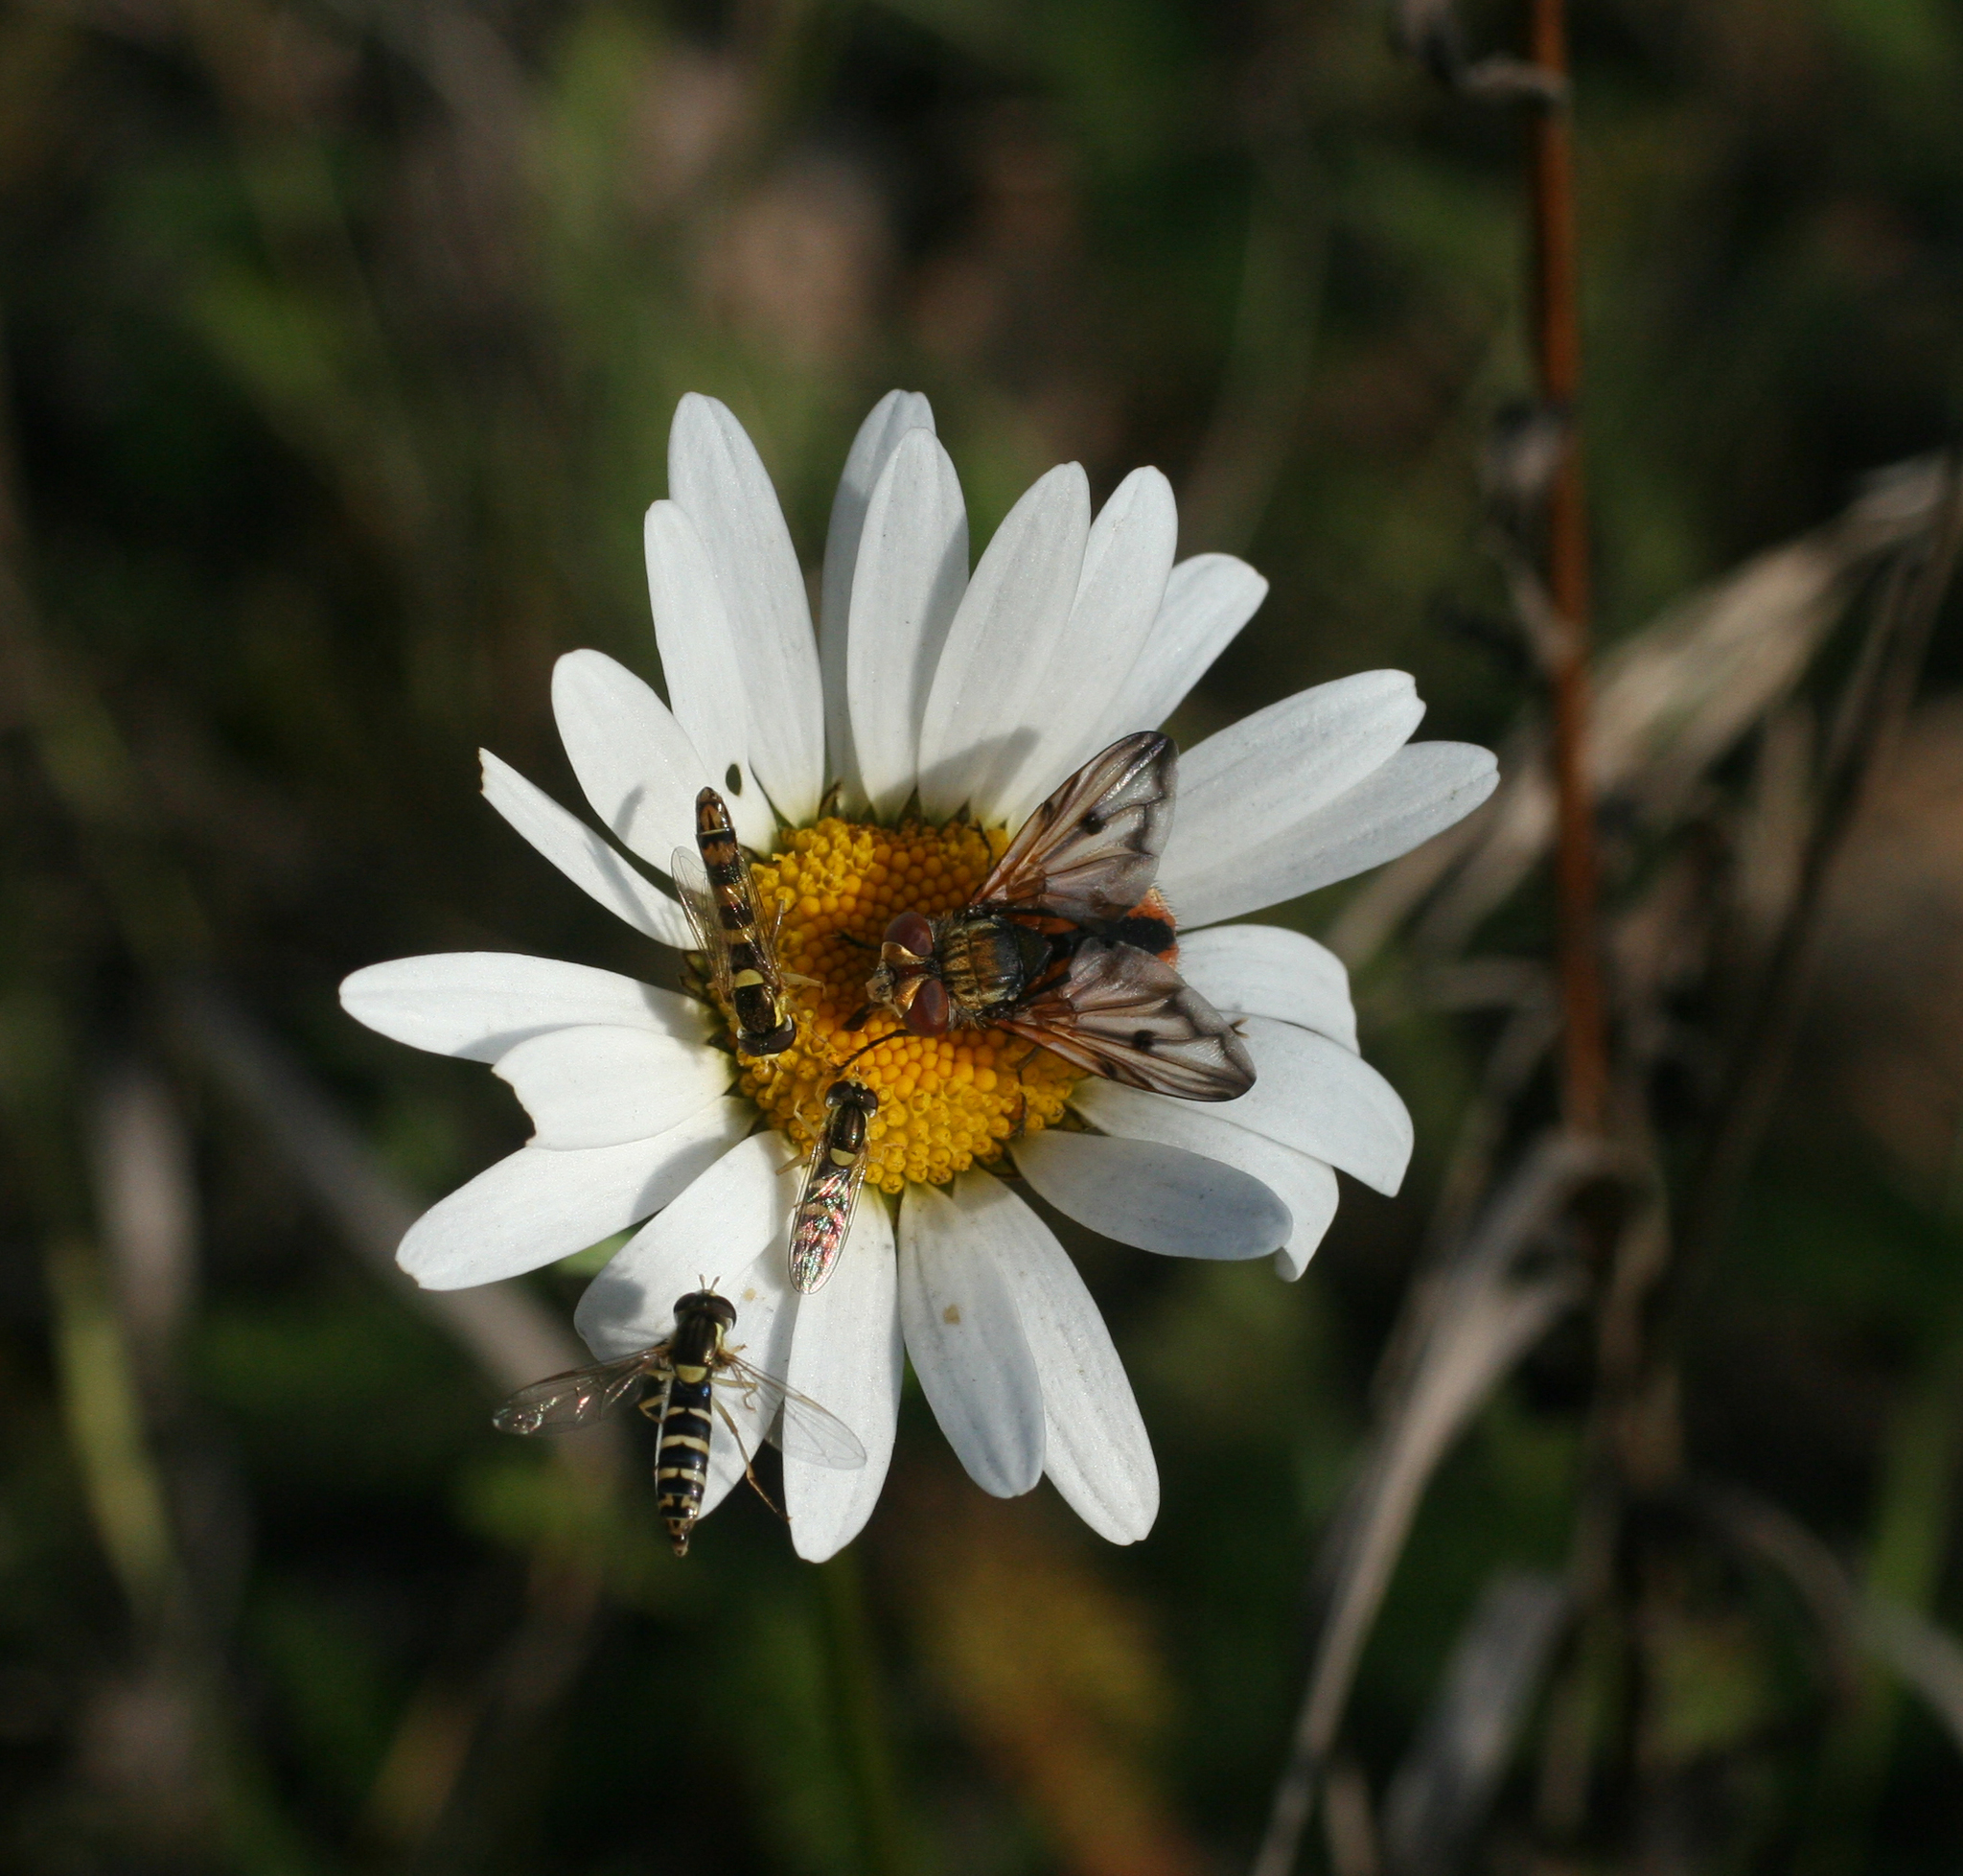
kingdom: Animalia
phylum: Arthropoda
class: Insecta
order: Diptera
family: Tachinidae
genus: Ectophasia
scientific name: Ectophasia crassipennis
